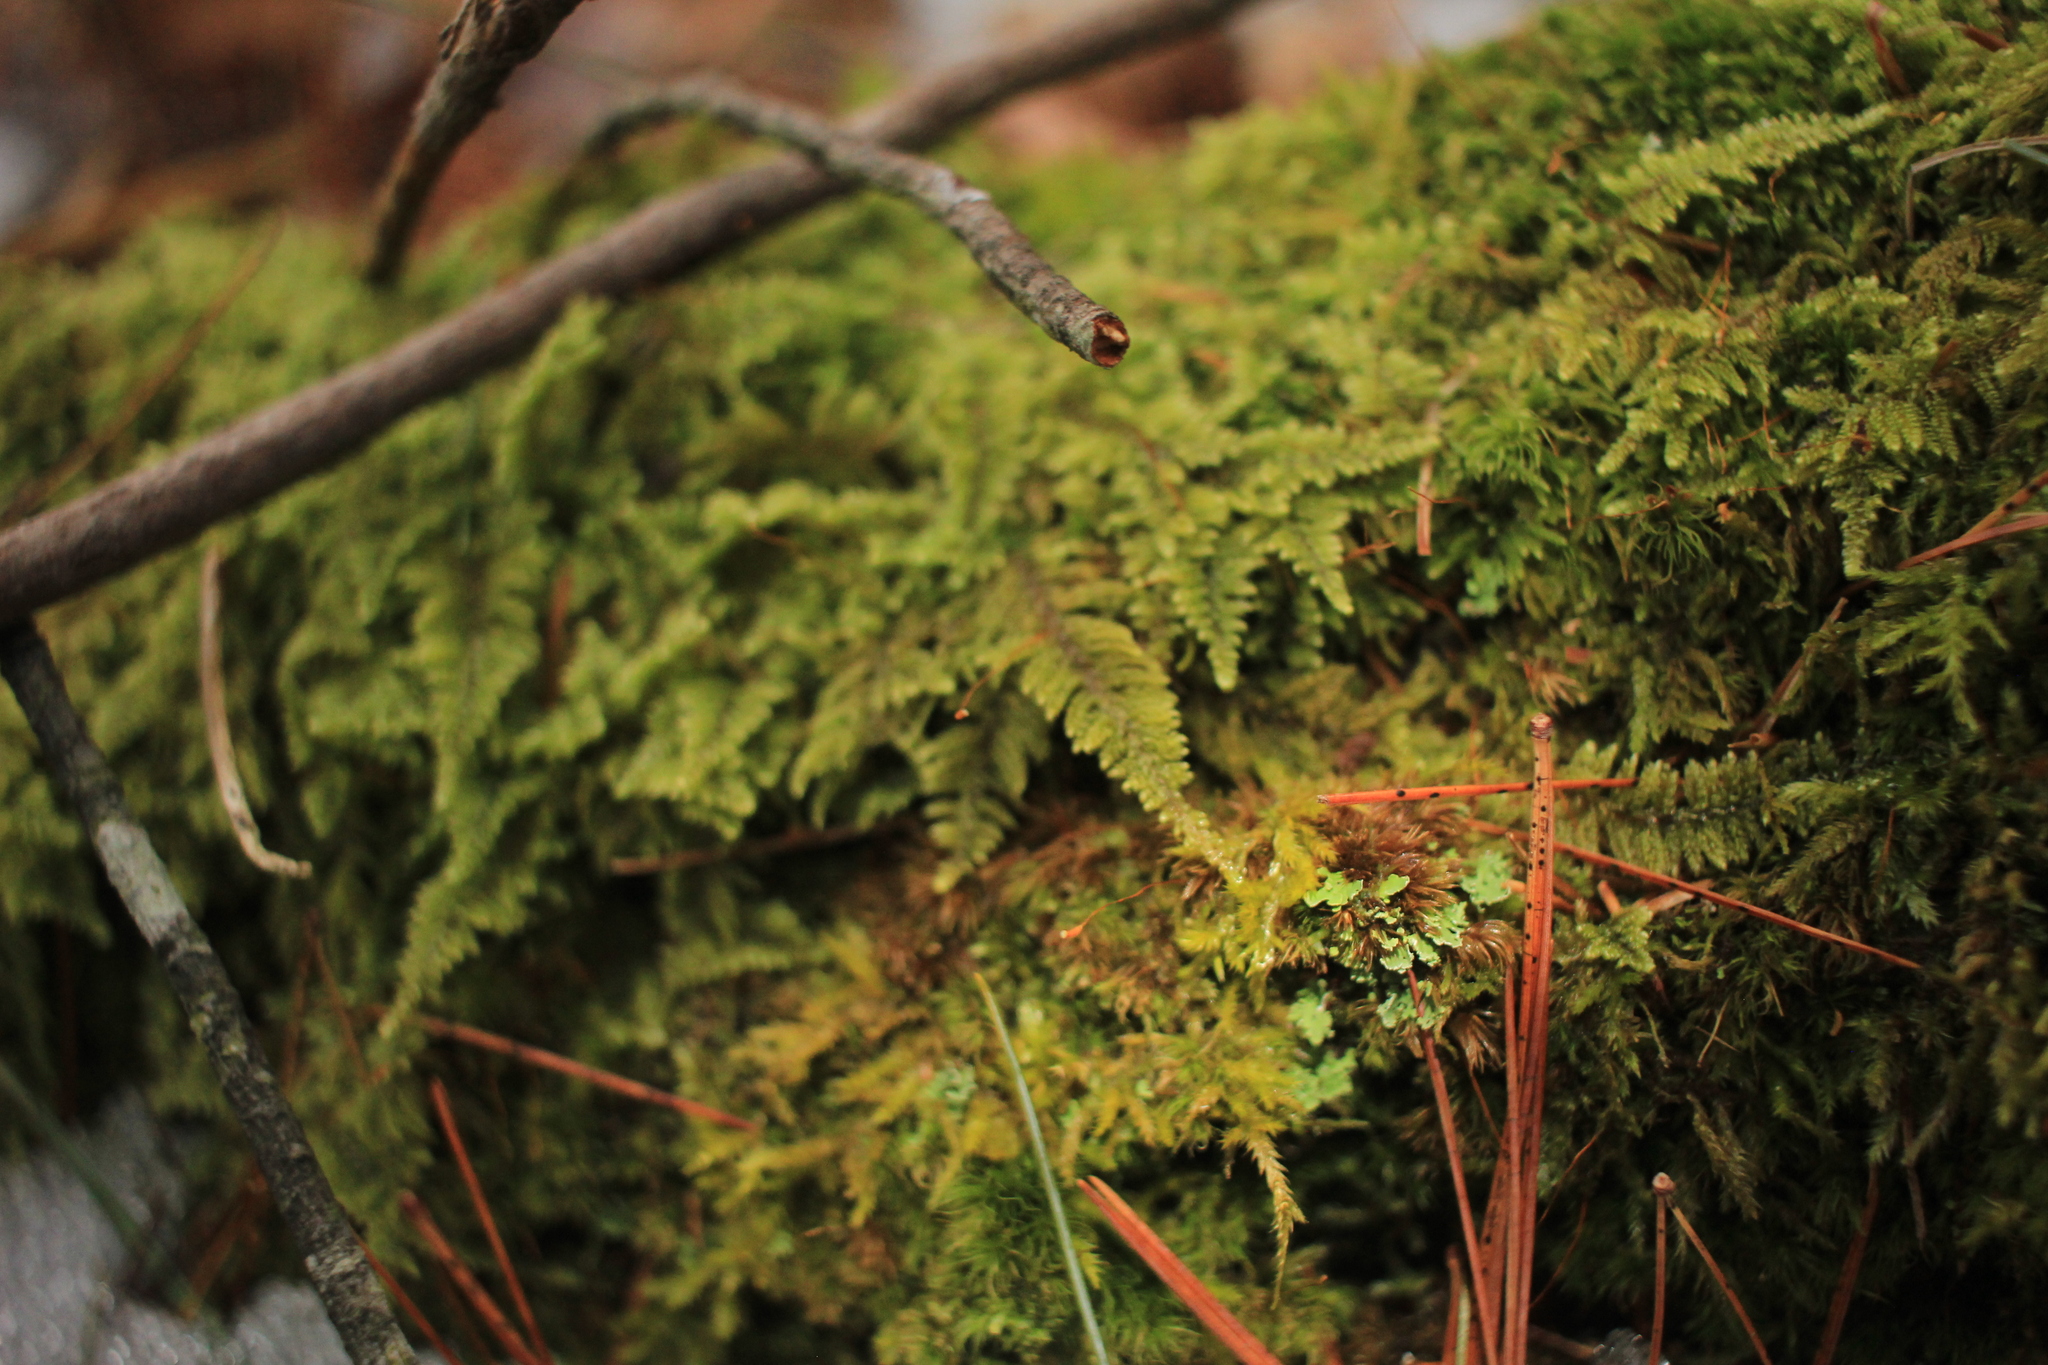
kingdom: Plantae
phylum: Bryophyta
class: Bryopsida
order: Hypnales
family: Callicladiaceae
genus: Callicladium
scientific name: Callicladium imponens
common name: Brocade moss
